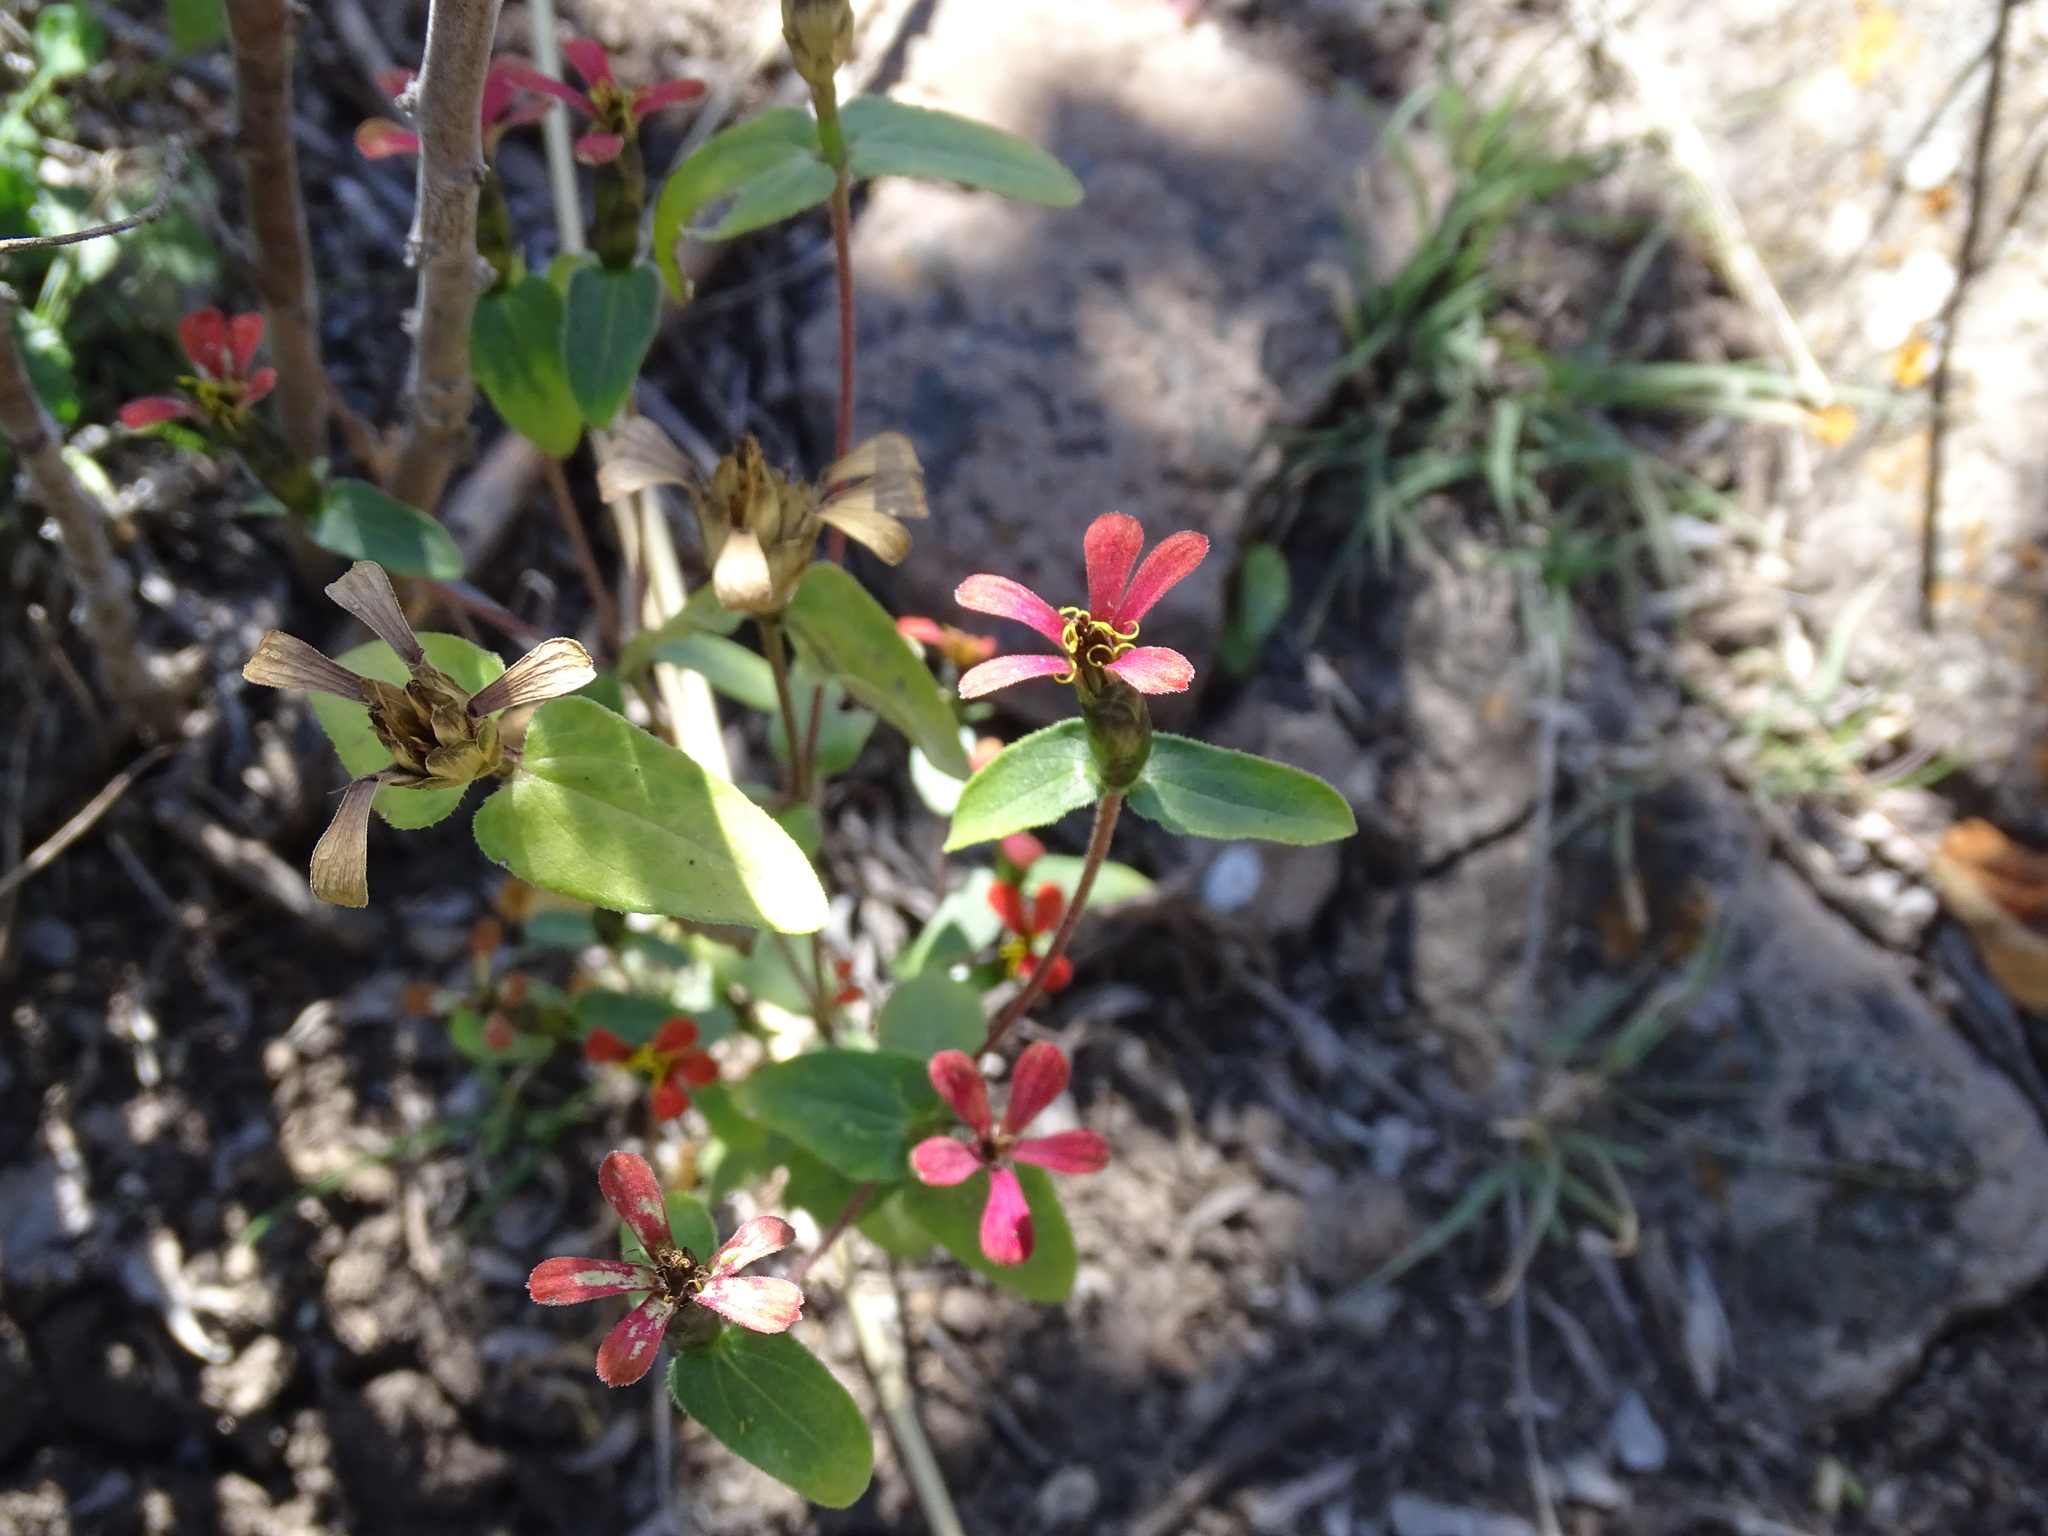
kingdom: Plantae
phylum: Tracheophyta
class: Magnoliopsida
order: Asterales
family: Asteraceae
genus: Zinnia
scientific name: Zinnia peruviana
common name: Peruvian zinnia
